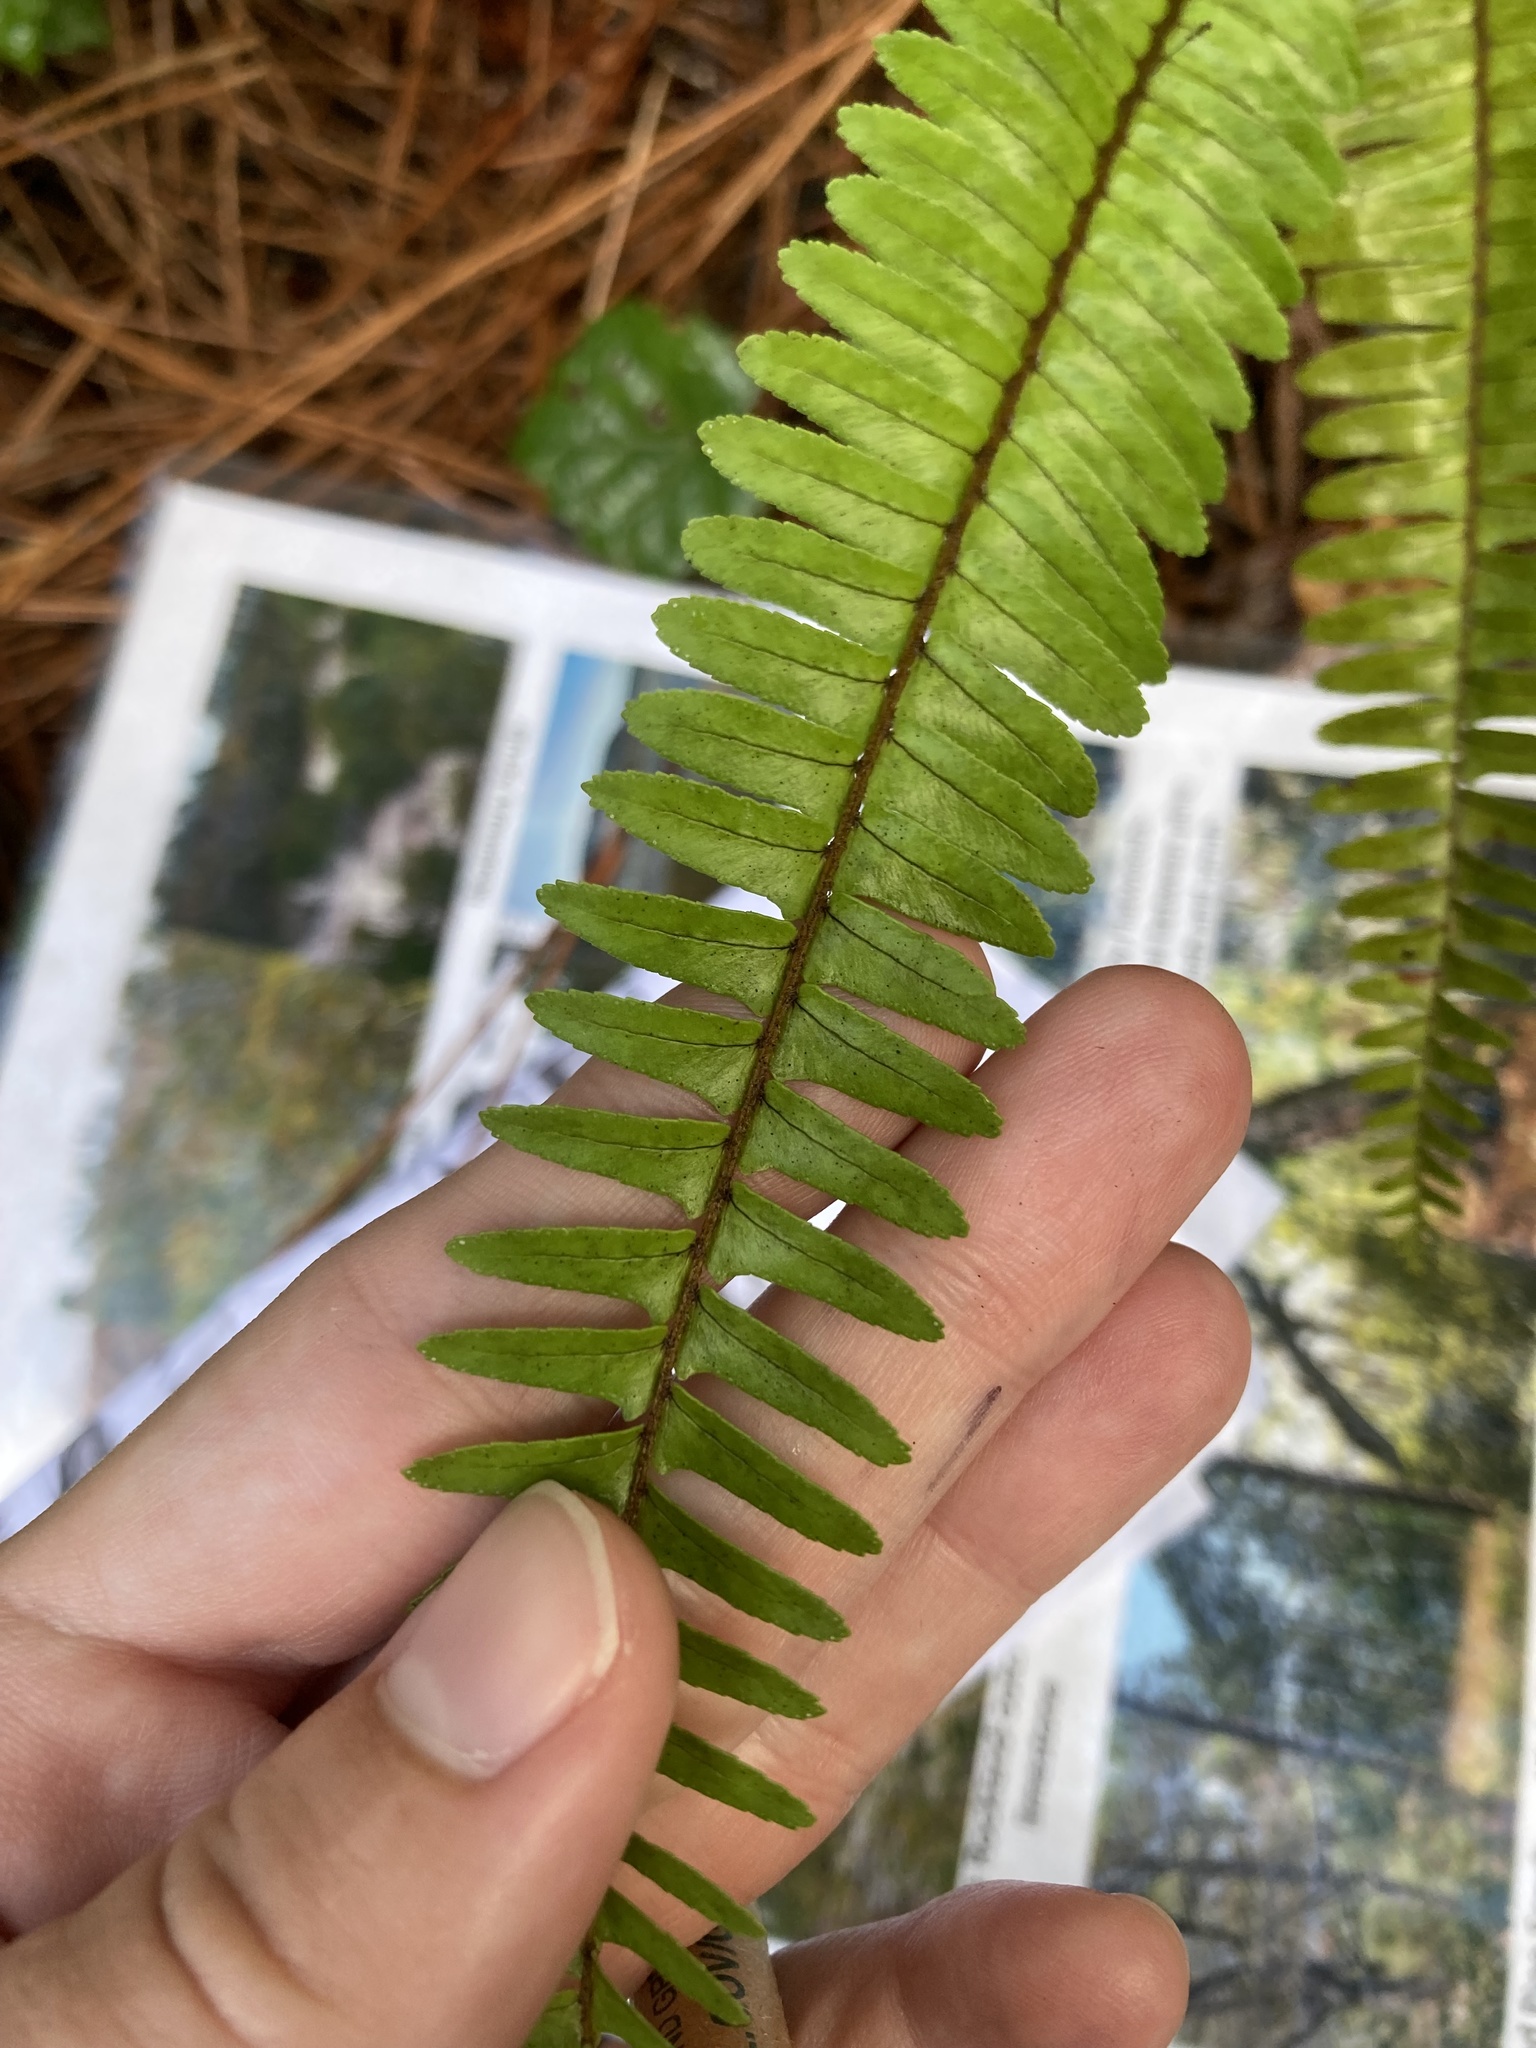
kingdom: Plantae
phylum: Tracheophyta
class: Polypodiopsida
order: Polypodiales
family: Nephrolepidaceae
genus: Nephrolepis
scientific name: Nephrolepis cordifolia
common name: Narrow swordfern
